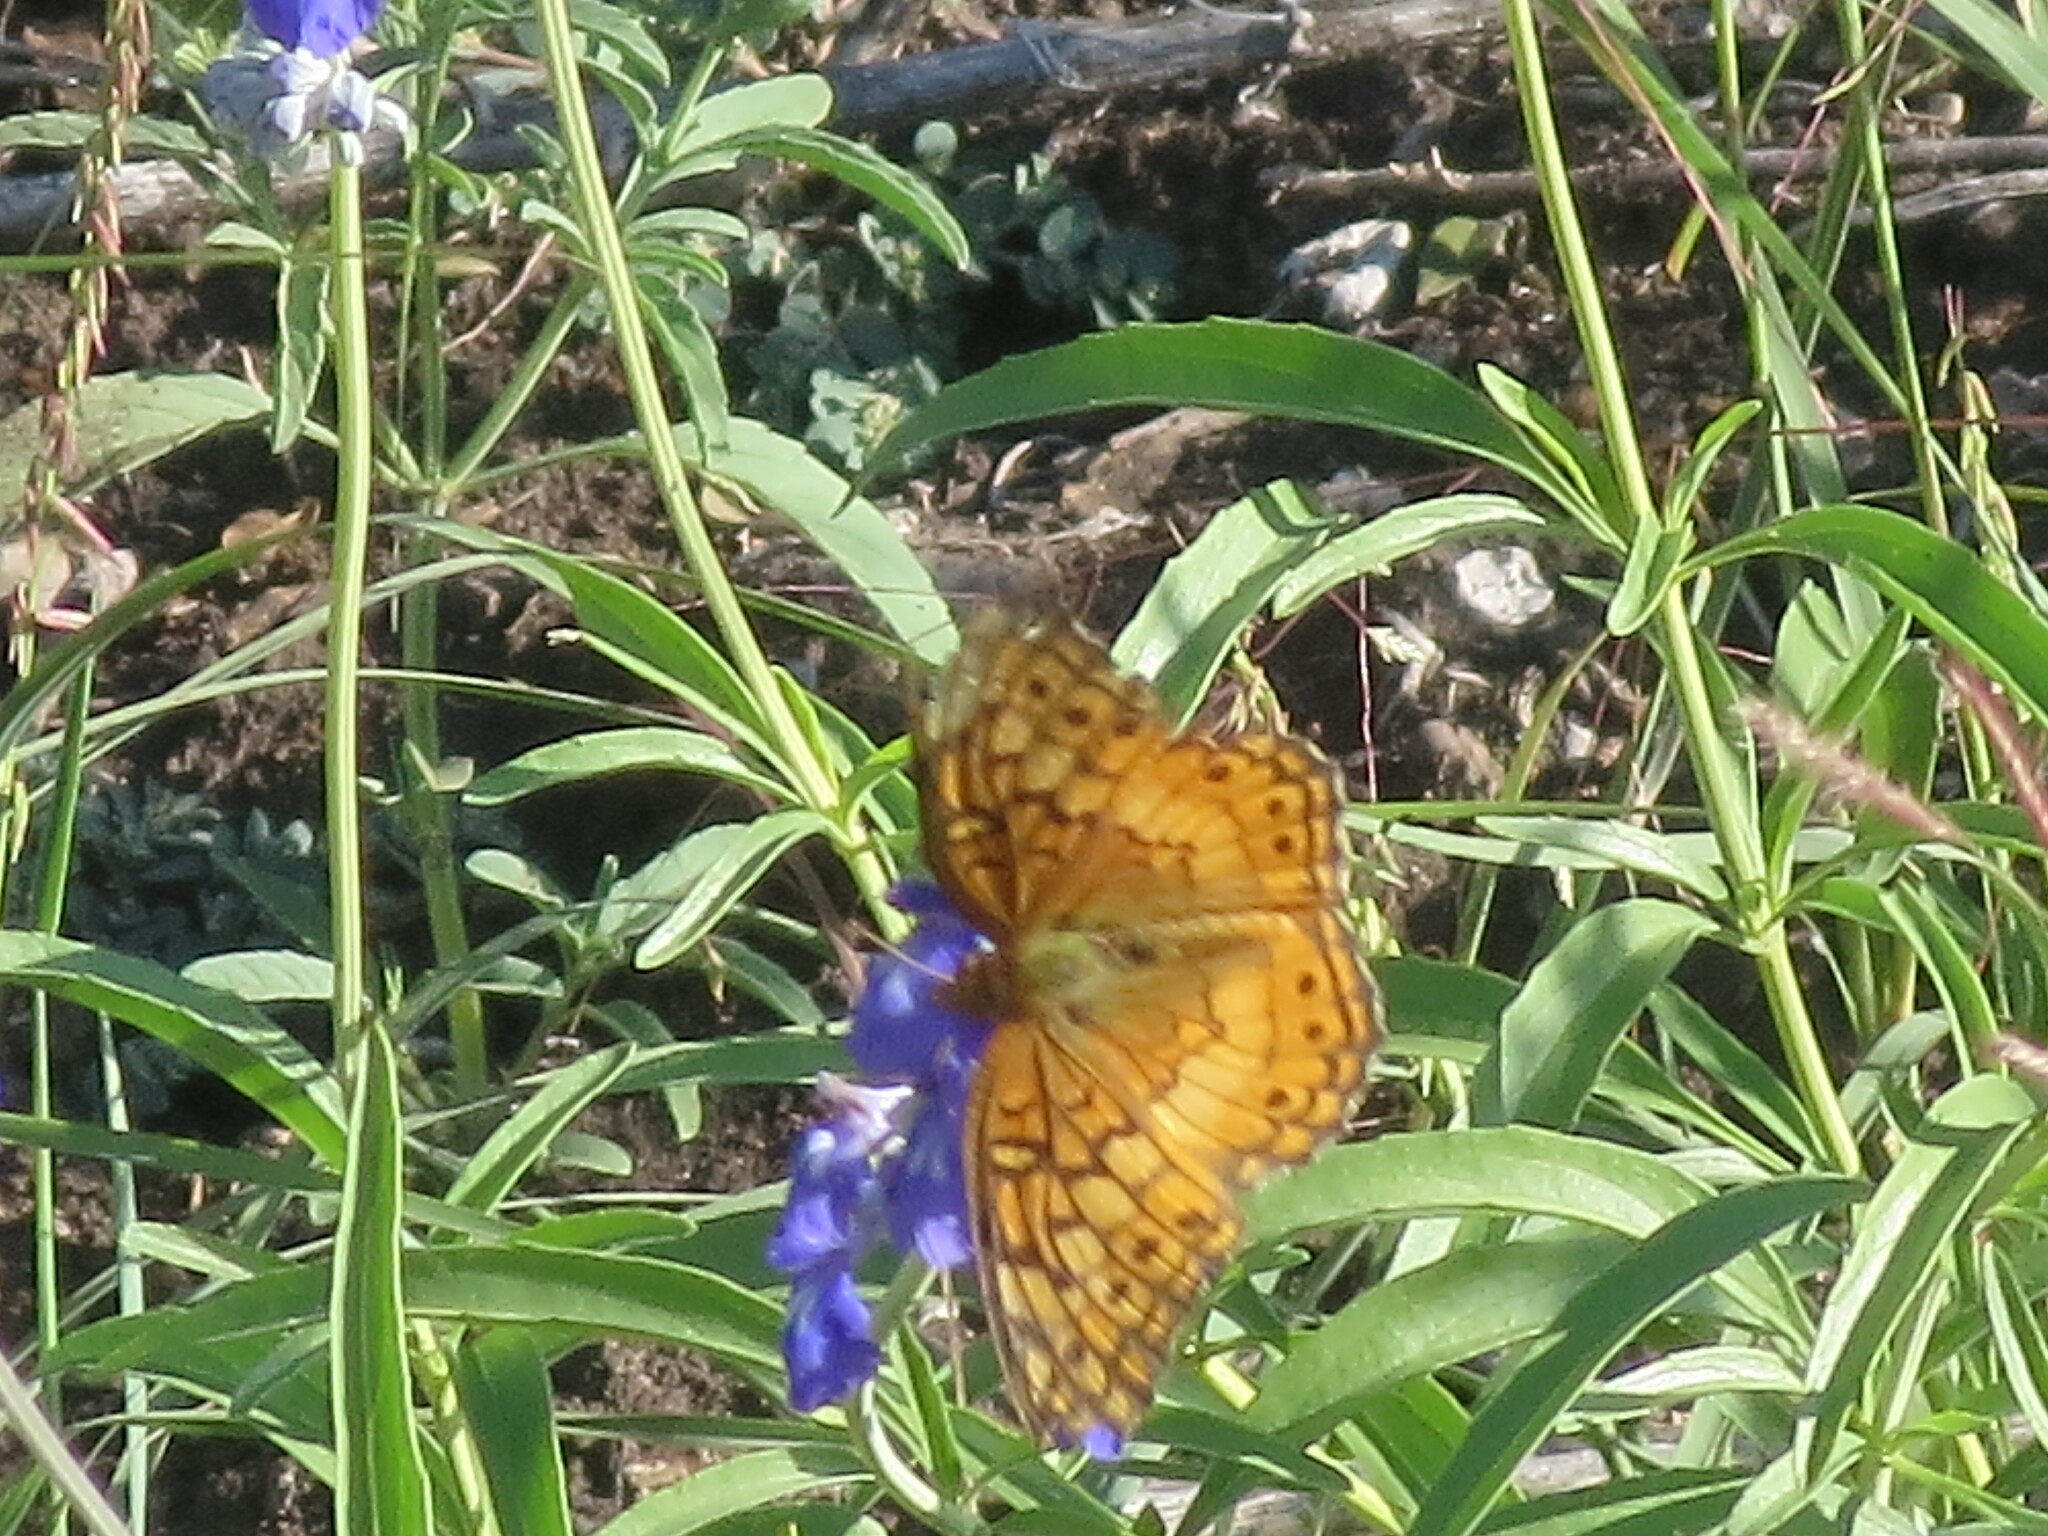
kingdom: Animalia
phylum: Arthropoda
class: Insecta
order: Lepidoptera
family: Nymphalidae
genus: Euptoieta
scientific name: Euptoieta claudia
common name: Variegated fritillary
